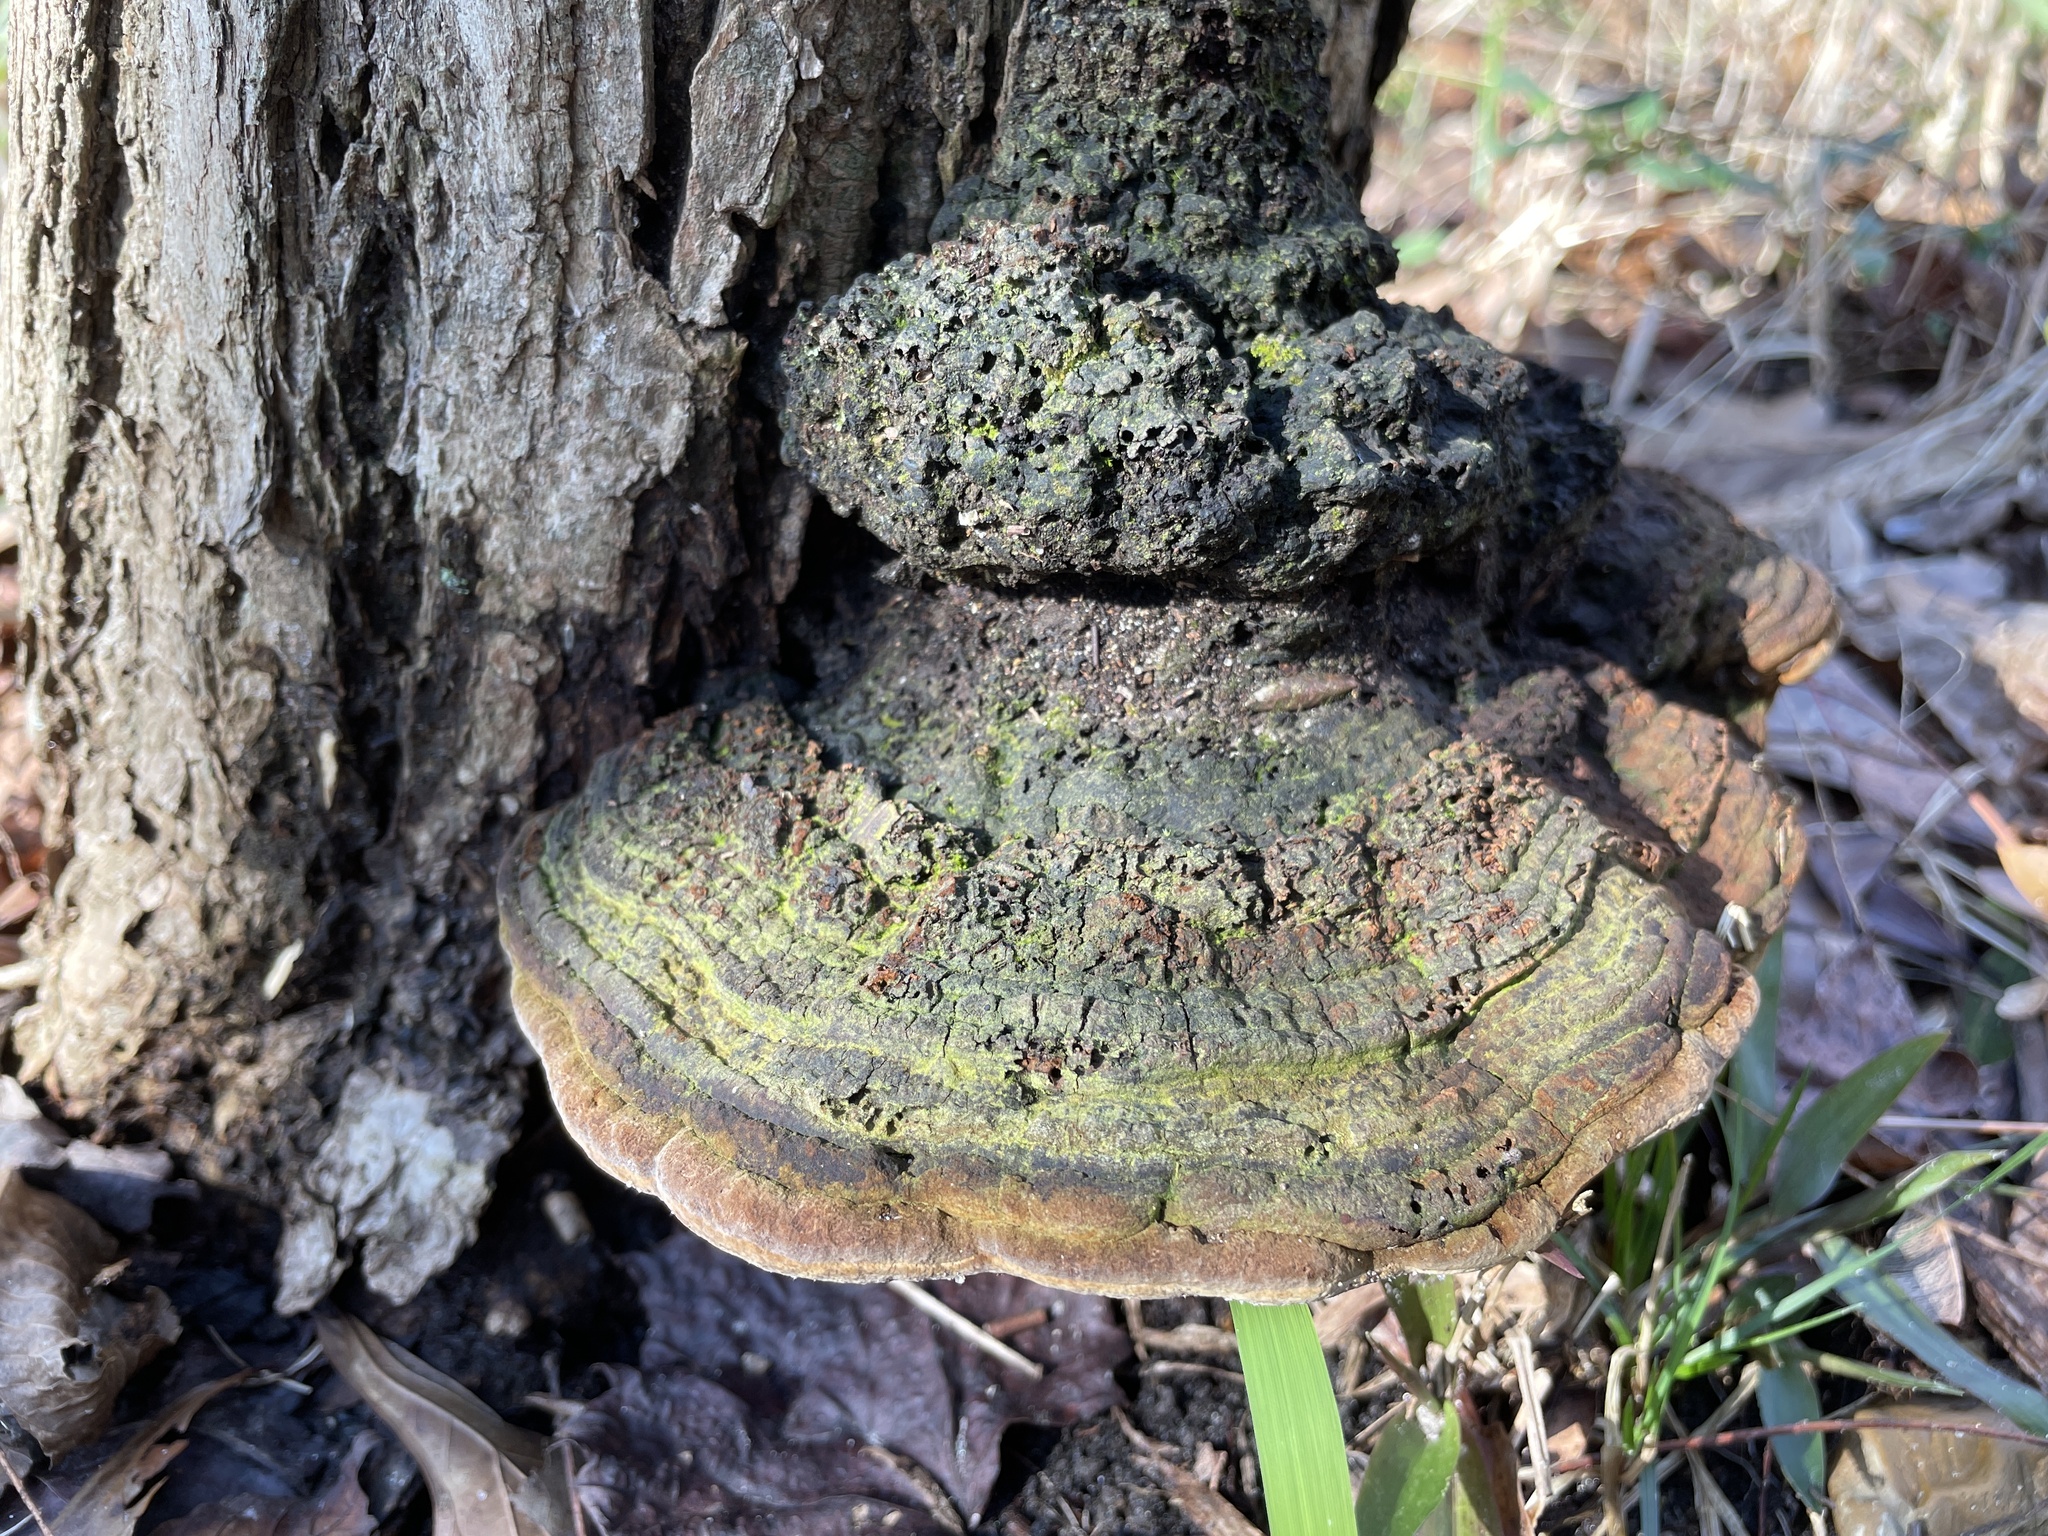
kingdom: Fungi
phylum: Basidiomycota
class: Agaricomycetes
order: Hymenochaetales
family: Hymenochaetaceae
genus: Phellinus
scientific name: Phellinus robiniae
